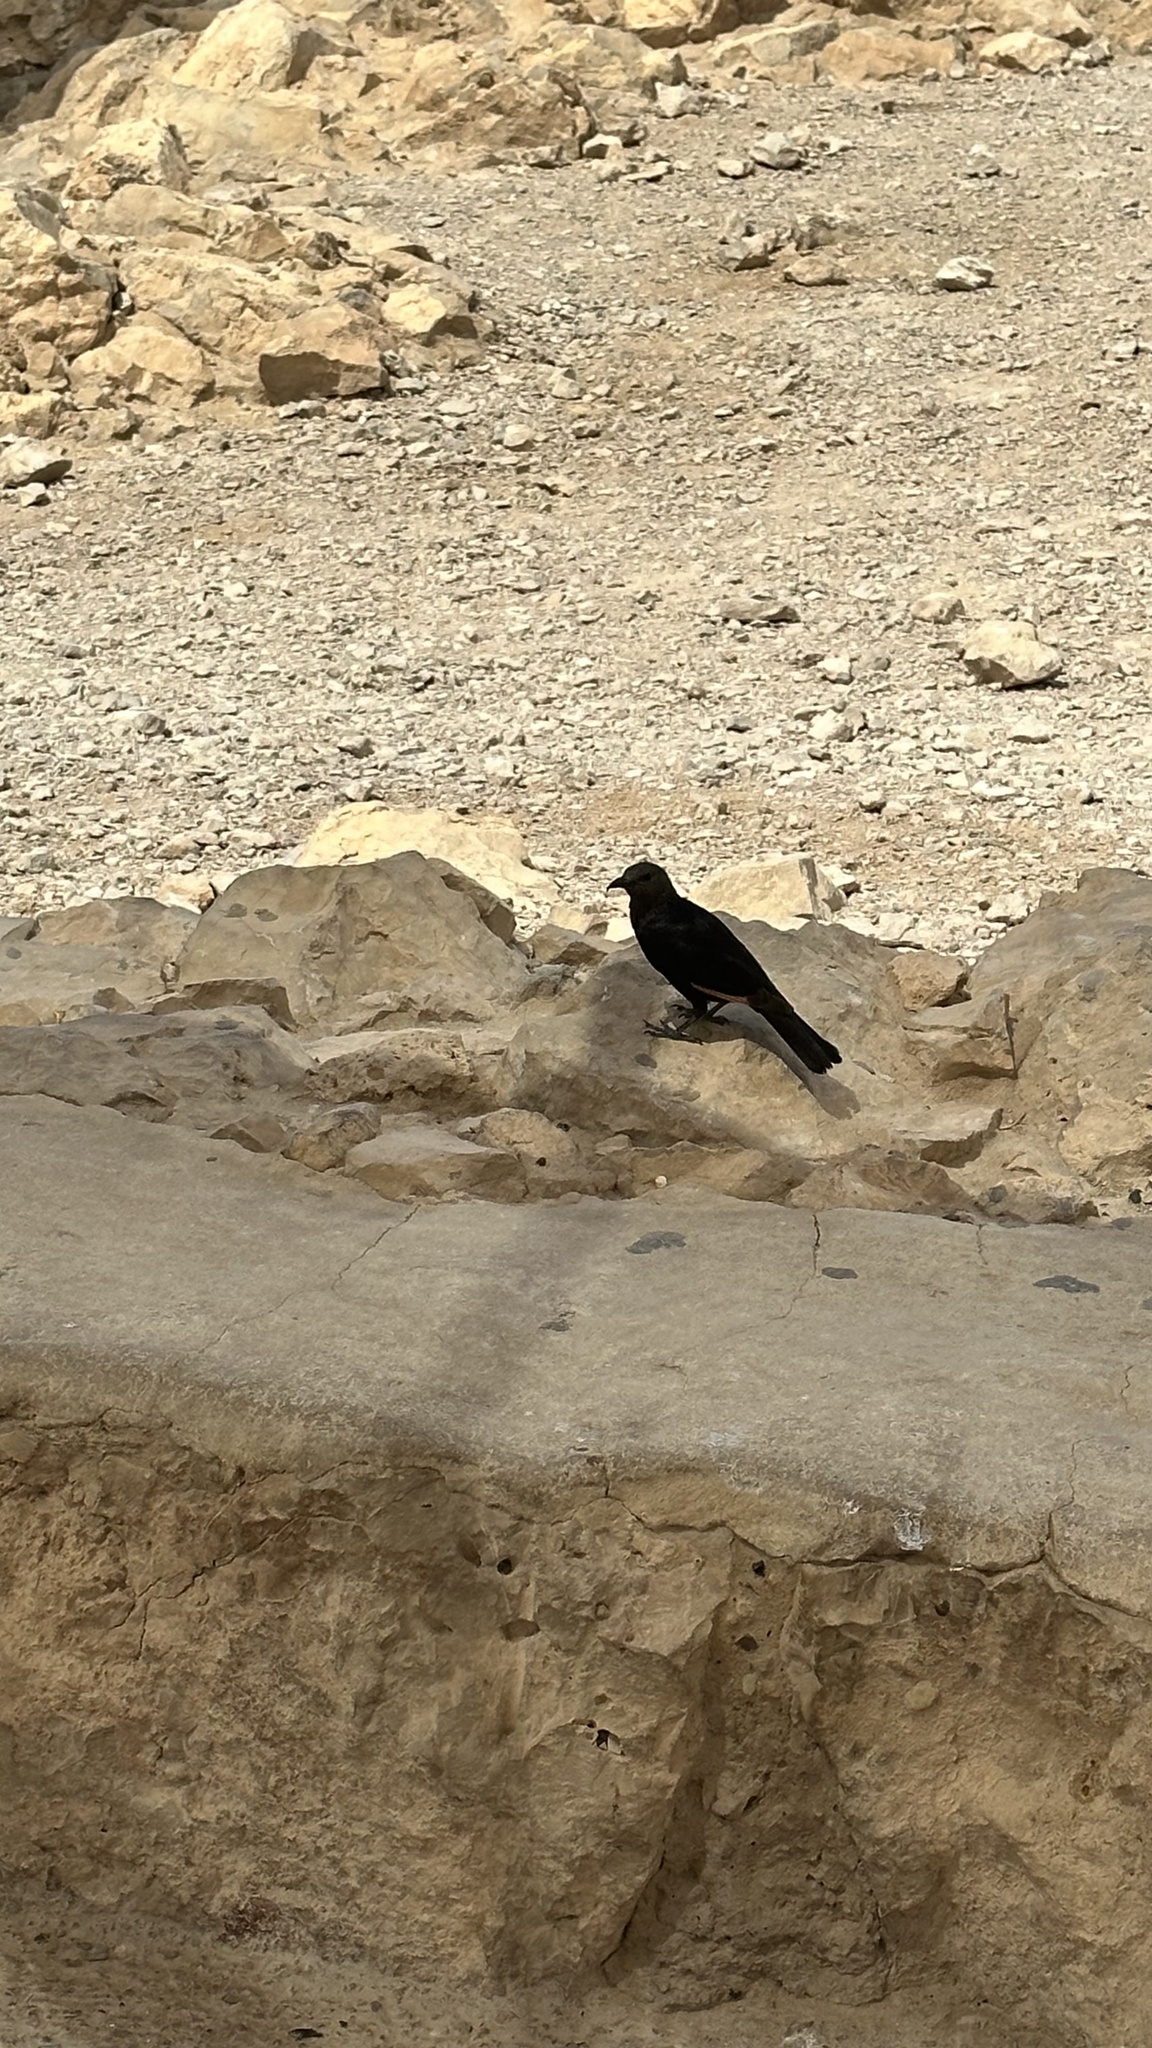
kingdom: Animalia
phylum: Chordata
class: Aves
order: Passeriformes
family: Sturnidae
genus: Onychognathus
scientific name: Onychognathus tristramii
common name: Tristram's starling
